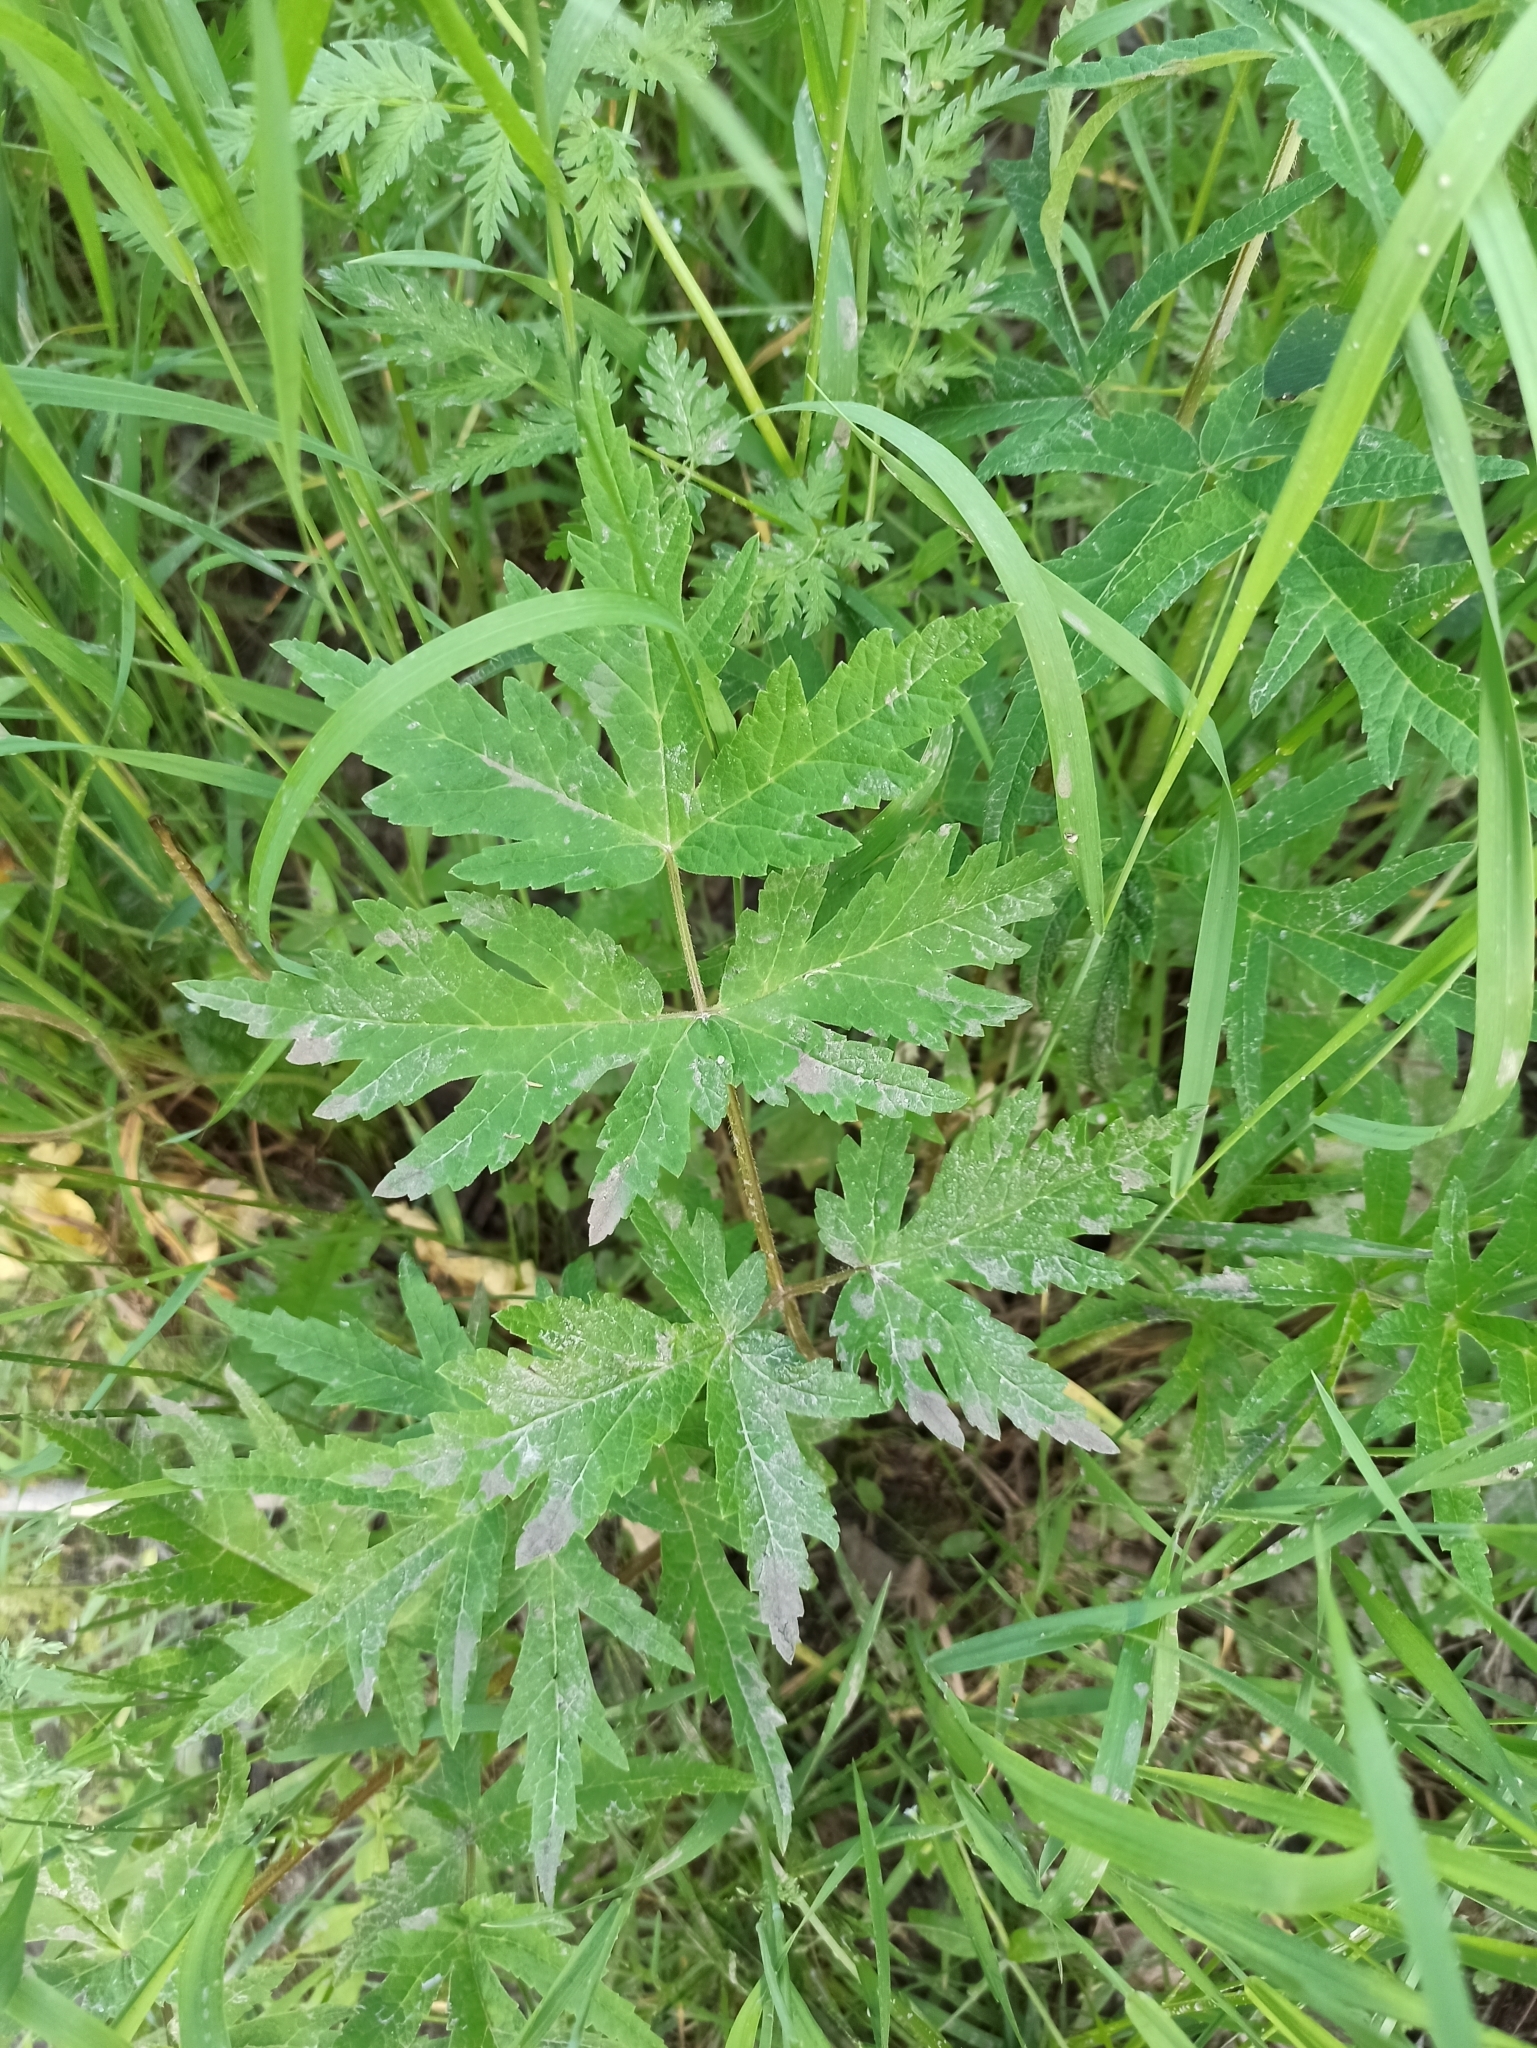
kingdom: Plantae
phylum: Tracheophyta
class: Magnoliopsida
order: Apiales
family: Apiaceae
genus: Heracleum
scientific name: Heracleum sphondylium
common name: Hogweed
